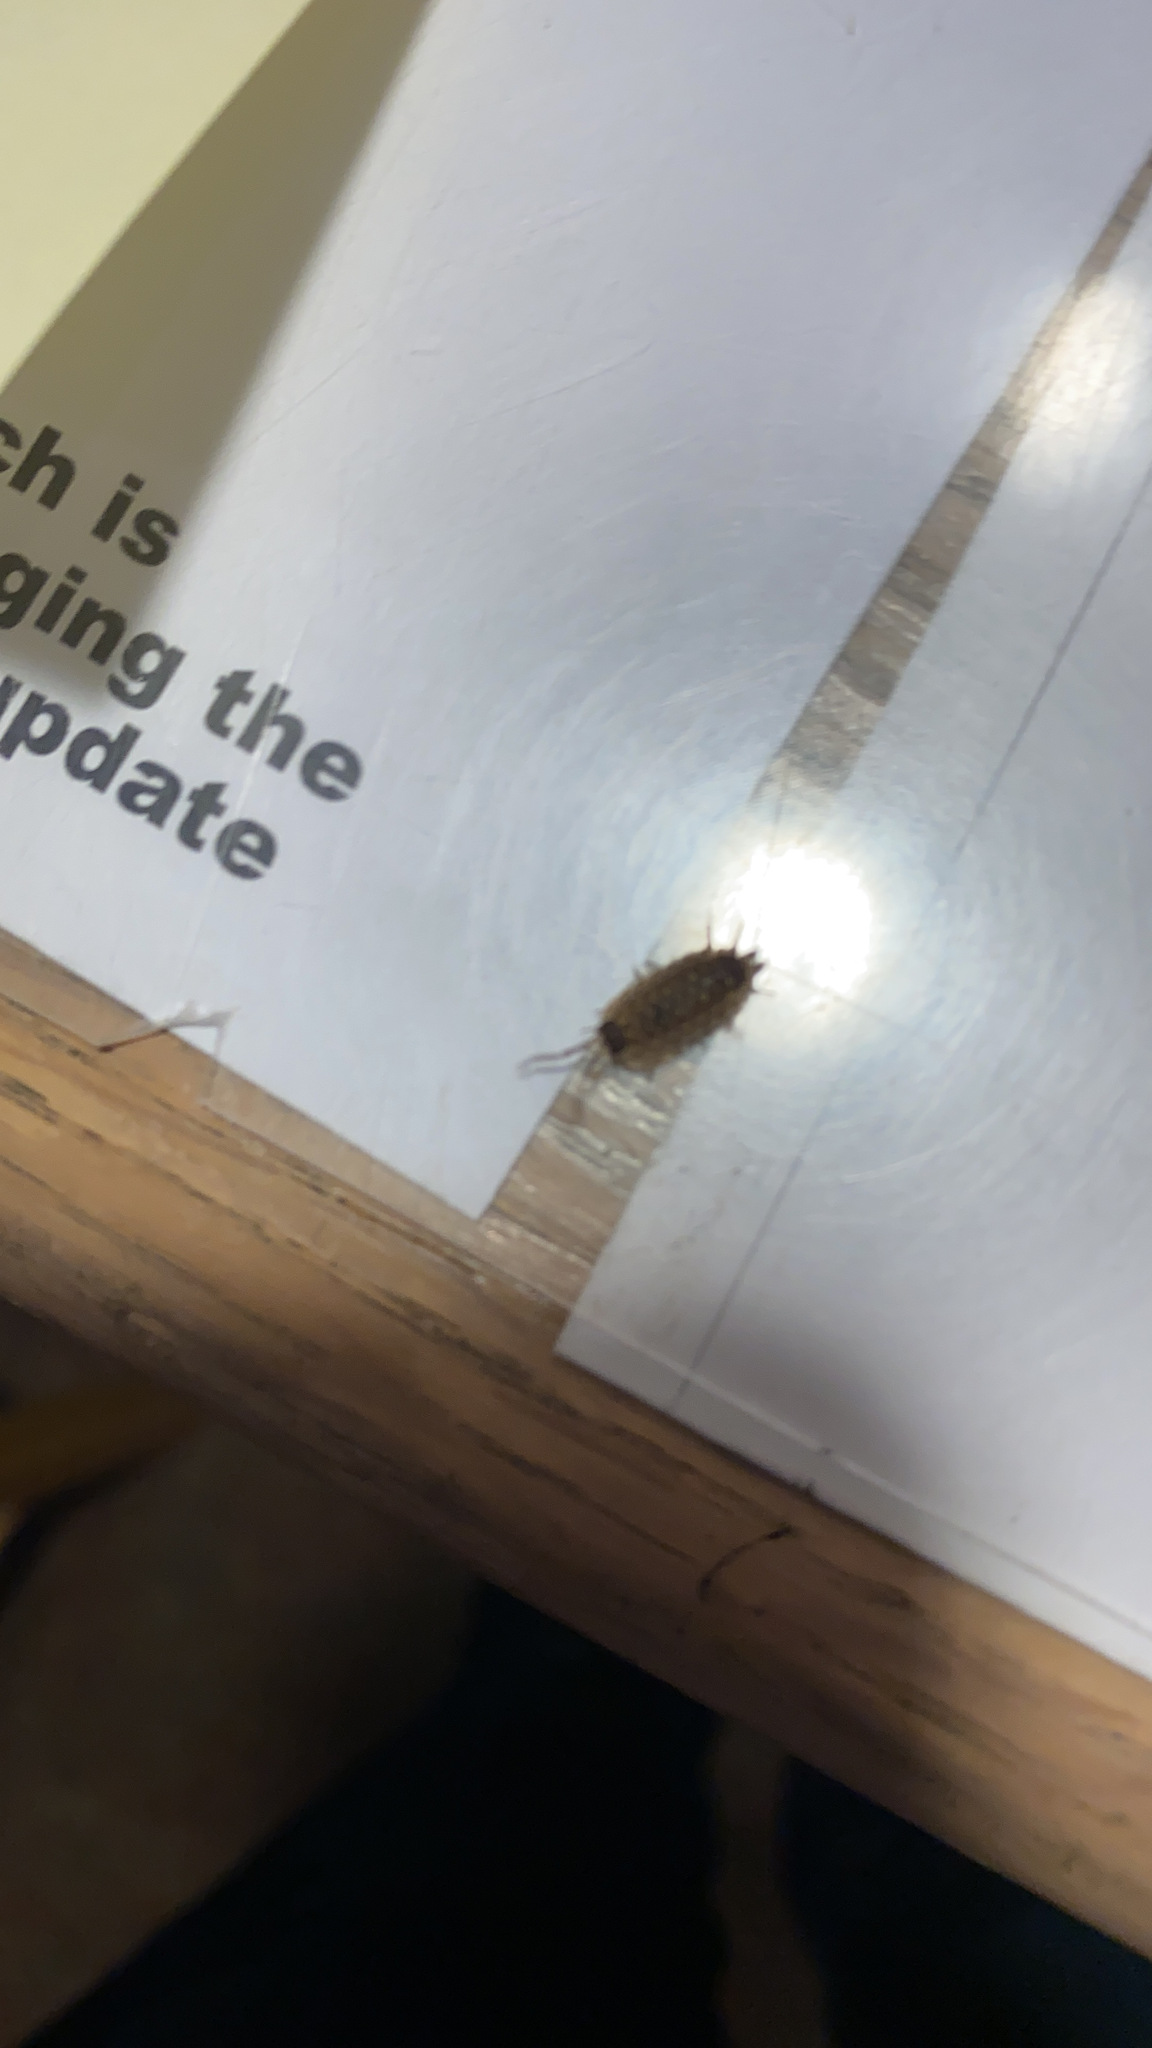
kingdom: Animalia
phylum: Arthropoda
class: Malacostraca
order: Isopoda
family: Porcellionidae
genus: Porcellio
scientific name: Porcellio spinicornis
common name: Painted woodlouse
